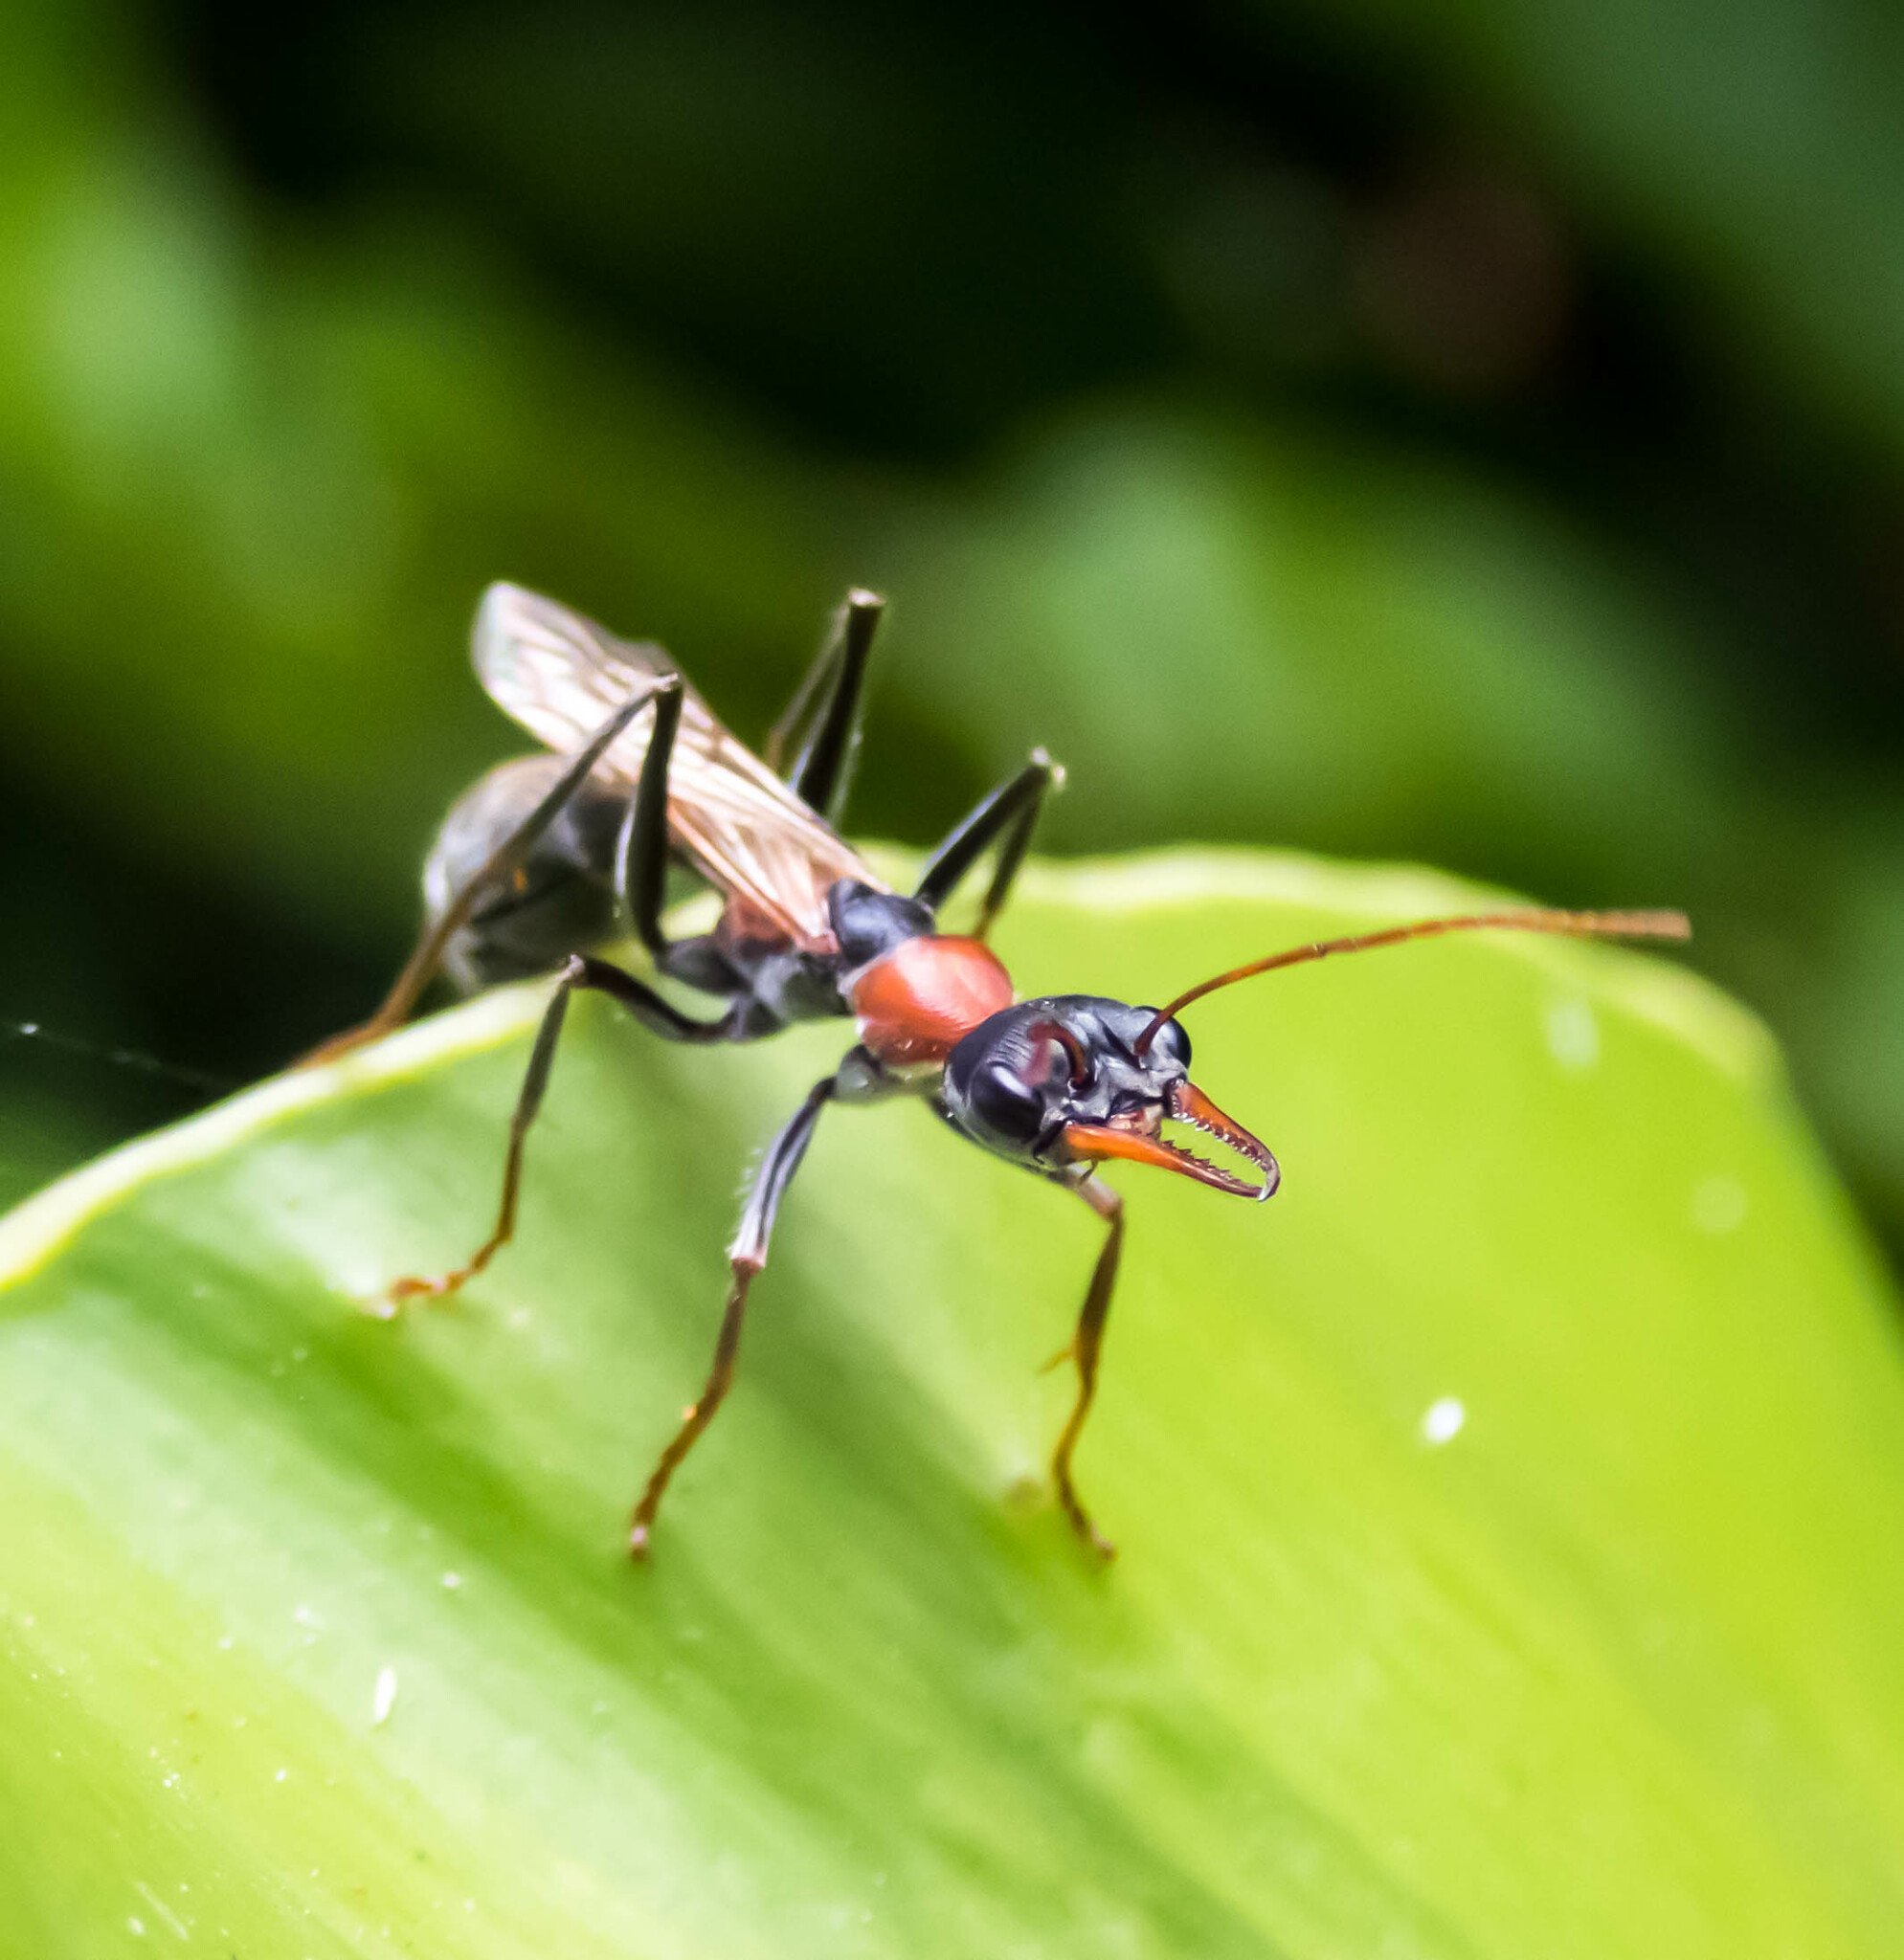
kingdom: Animalia
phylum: Arthropoda
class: Insecta
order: Hymenoptera
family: Formicidae
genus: Myrmecia
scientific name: Myrmecia nigrocincta
